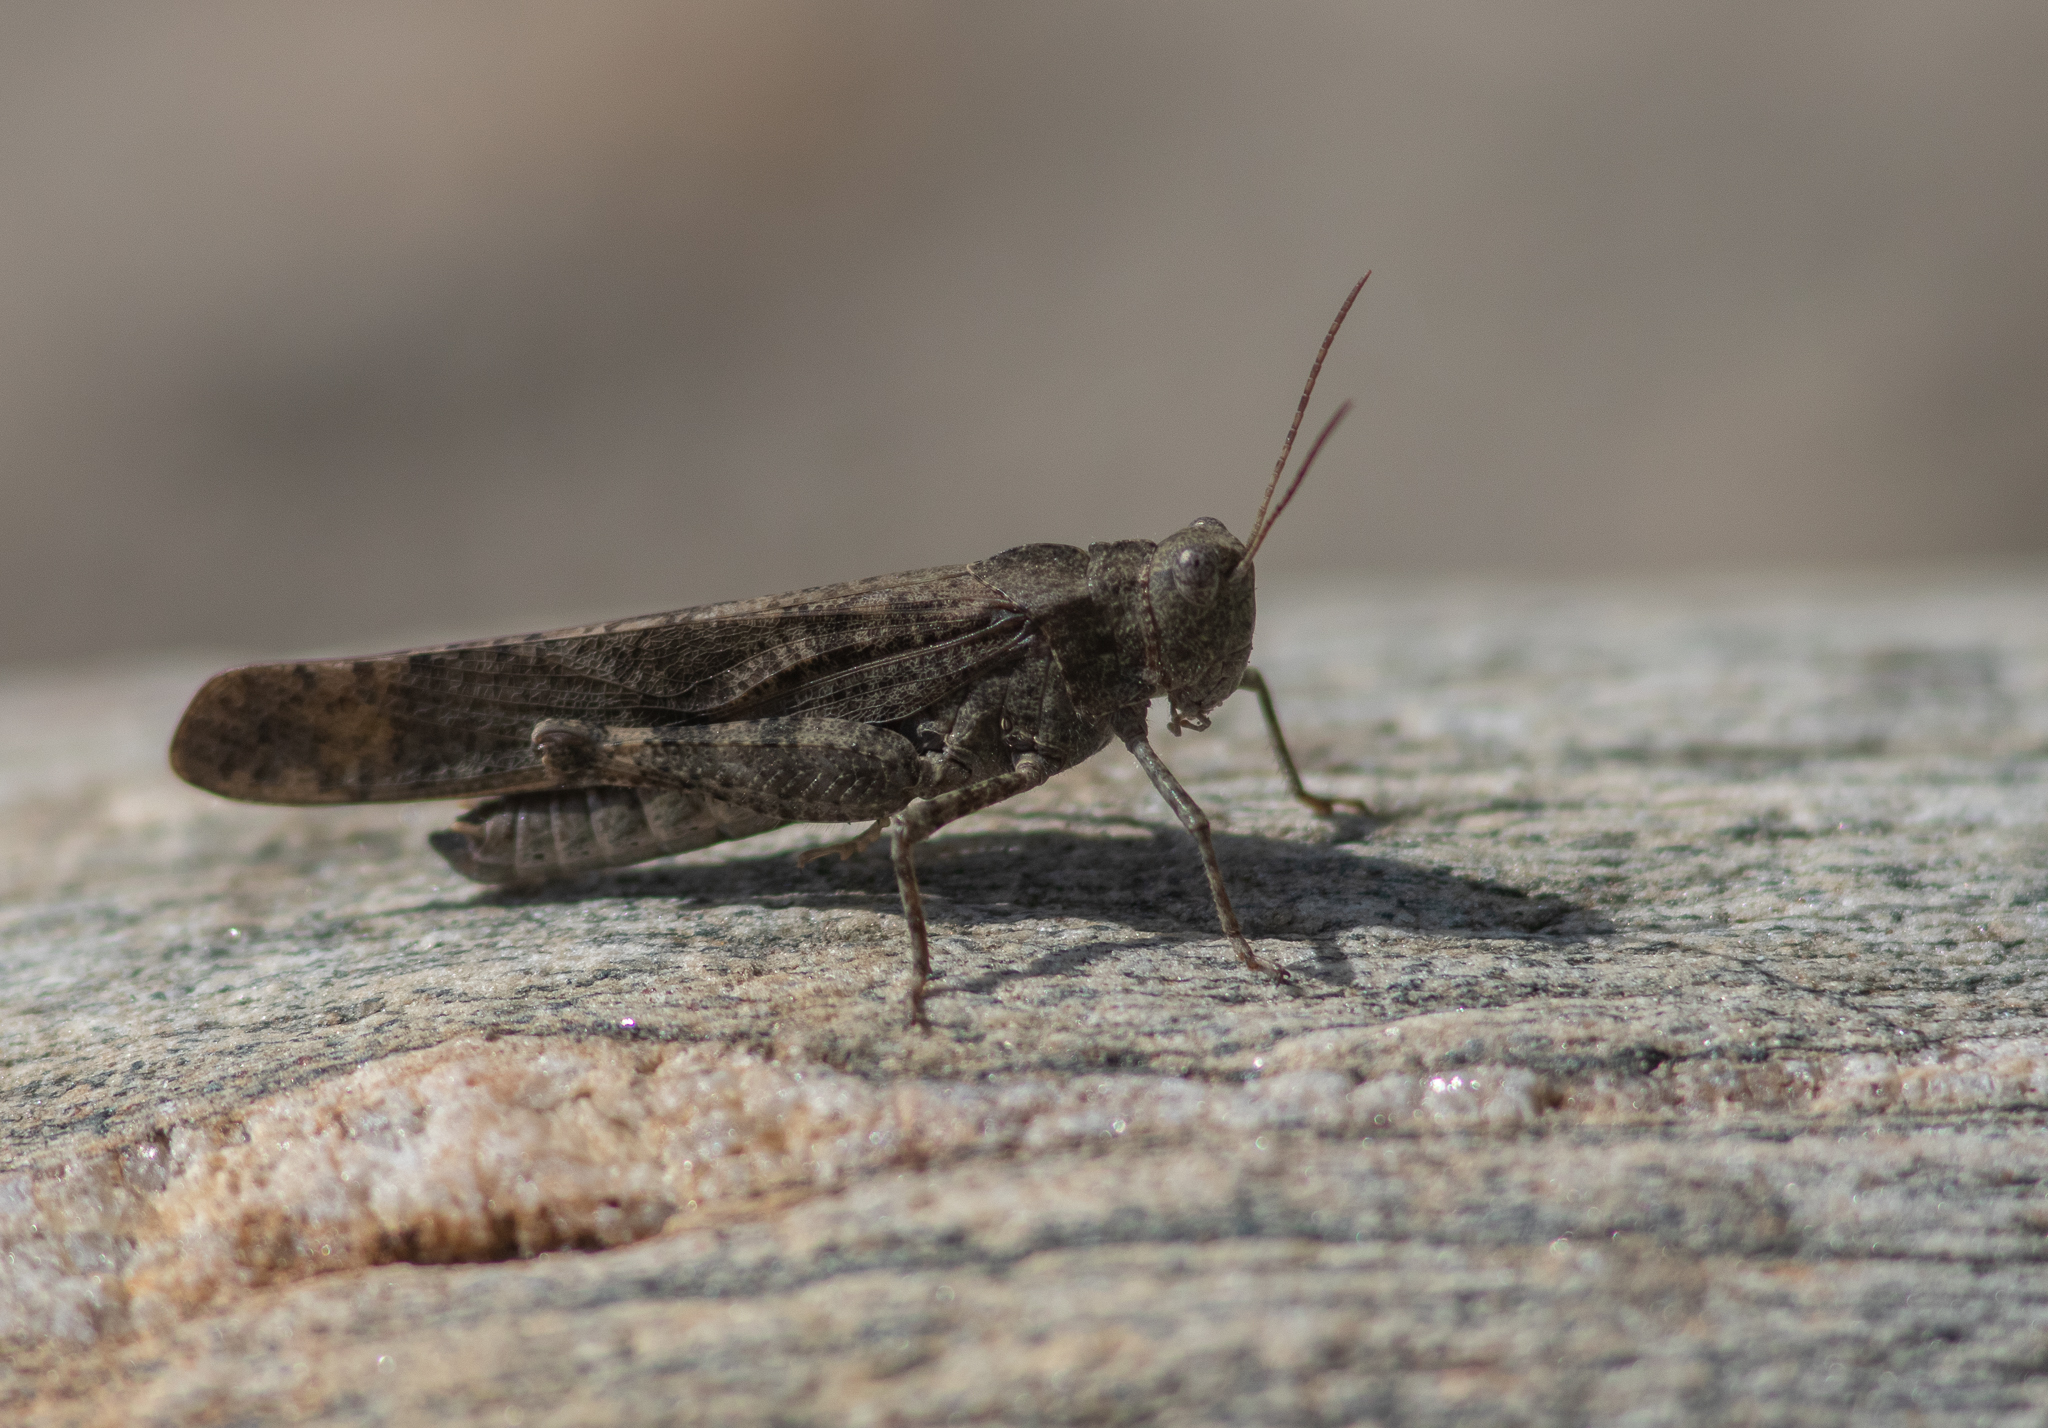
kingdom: Animalia
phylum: Arthropoda
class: Insecta
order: Orthoptera
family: Acrididae
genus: Dissosteira
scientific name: Dissosteira carolina
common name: Carolina grasshopper
